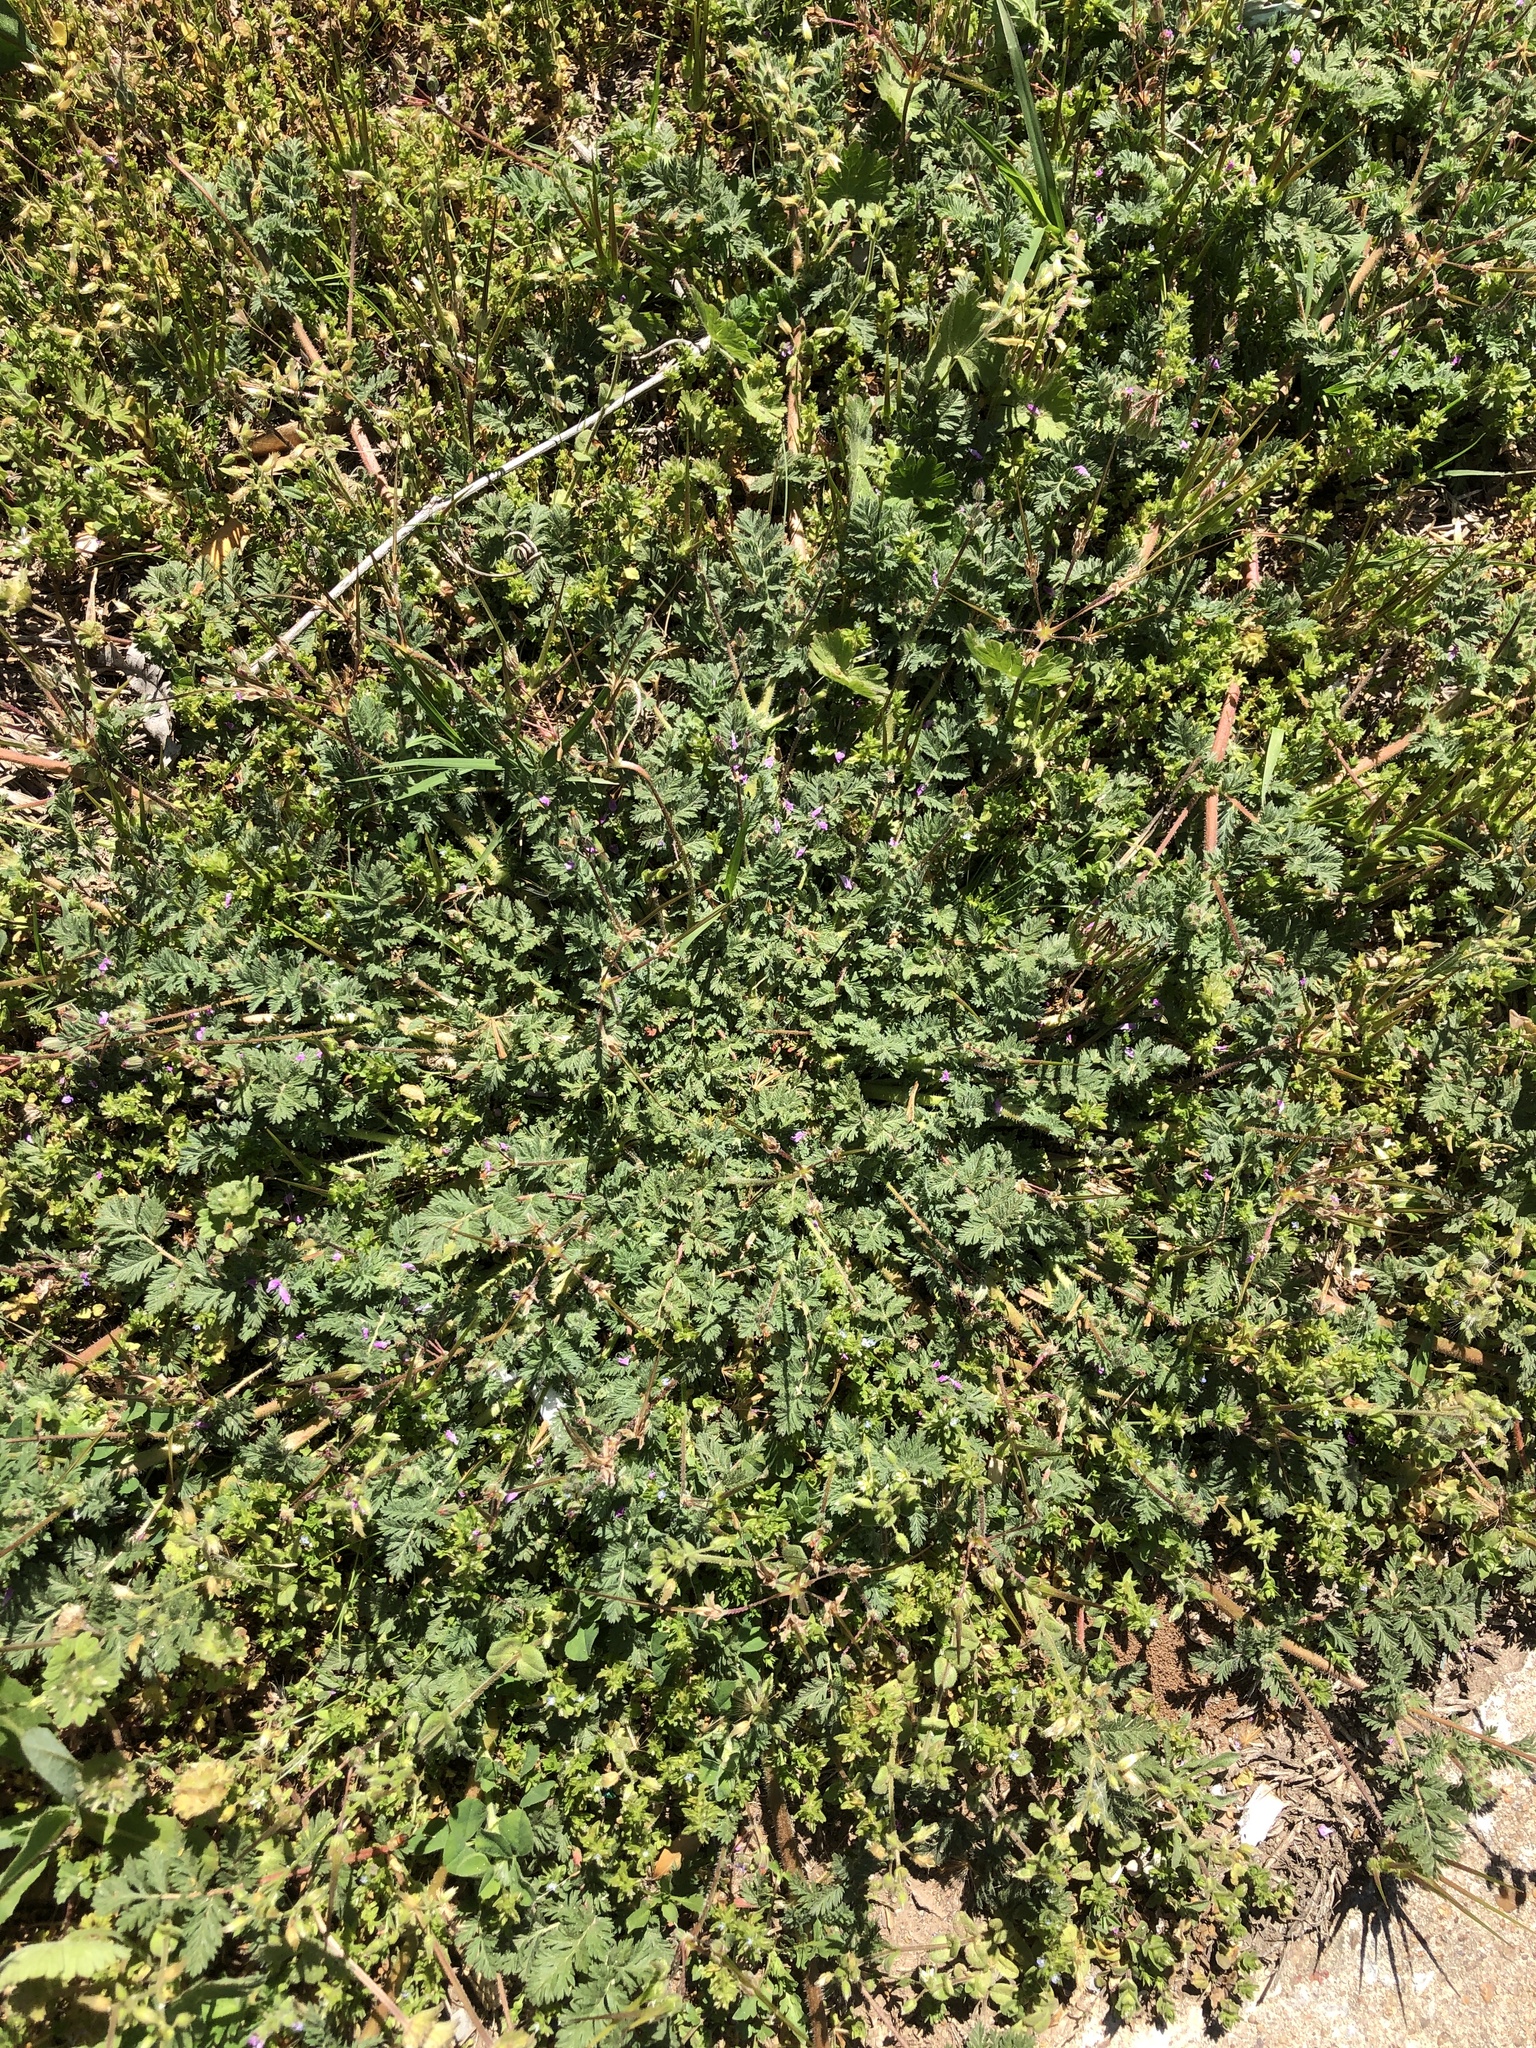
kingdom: Plantae
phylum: Tracheophyta
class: Magnoliopsida
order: Geraniales
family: Geraniaceae
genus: Erodium
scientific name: Erodium cicutarium
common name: Common stork's-bill
